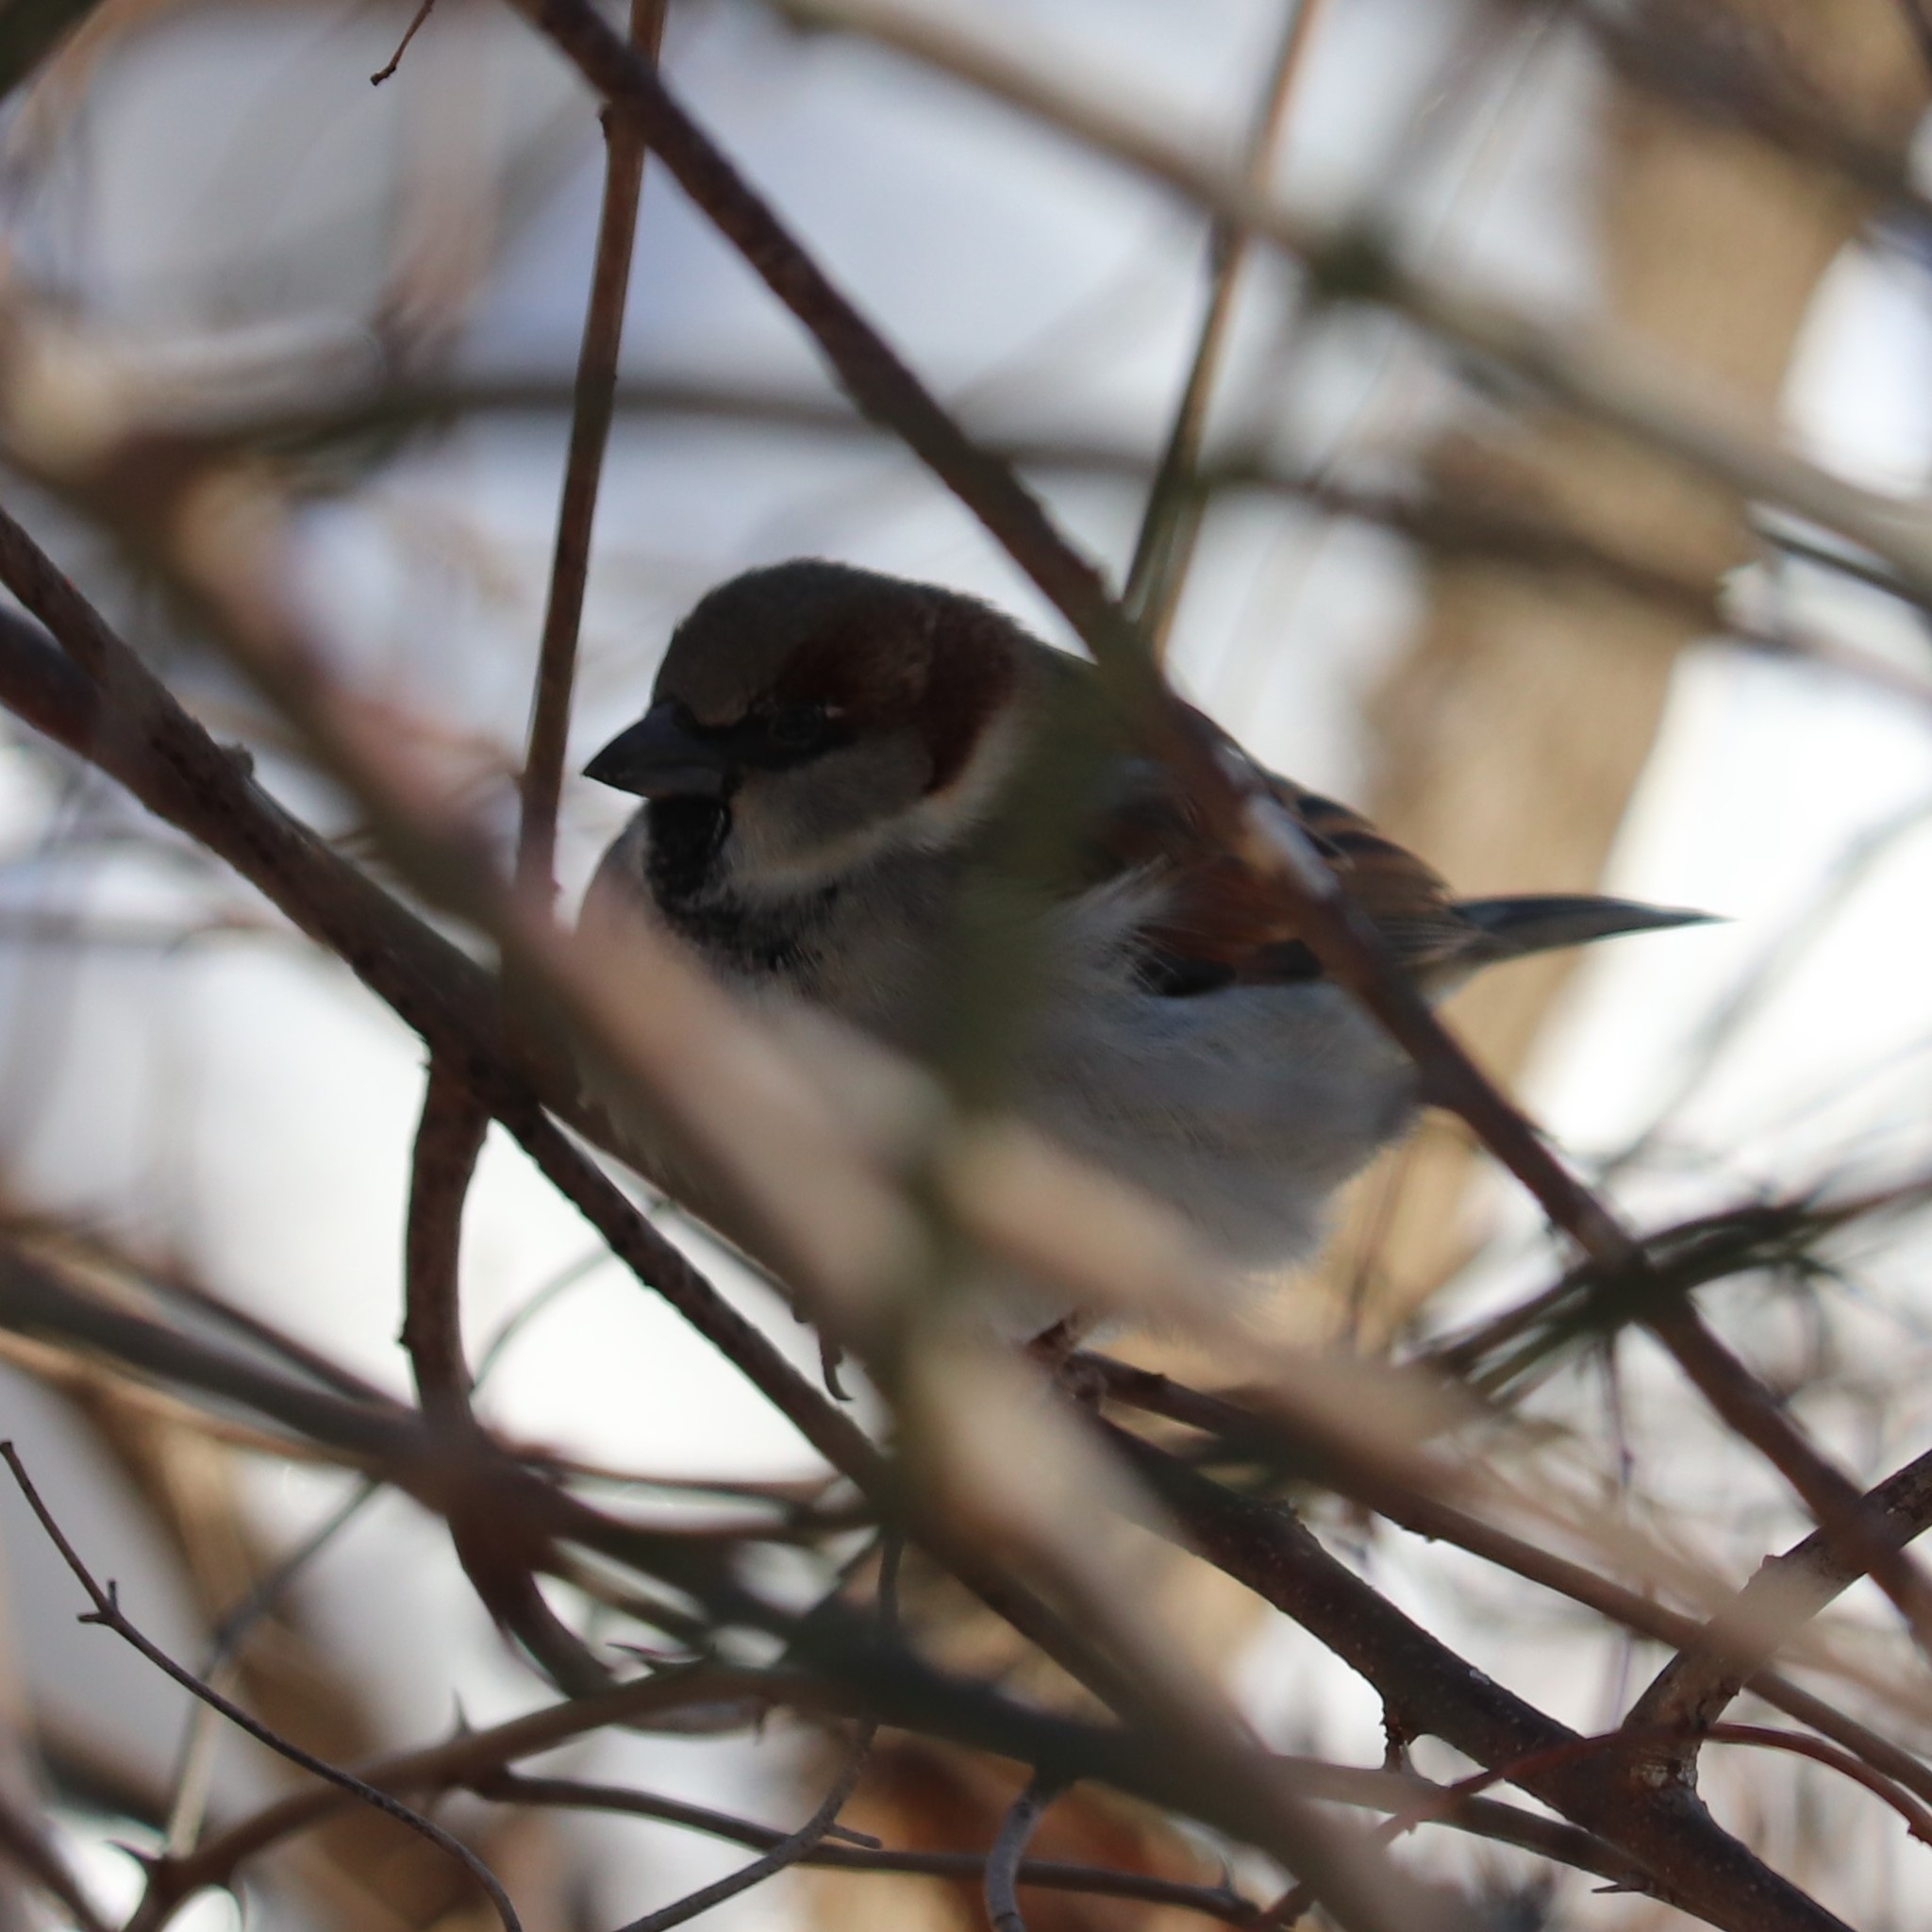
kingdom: Animalia
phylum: Chordata
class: Aves
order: Passeriformes
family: Passeridae
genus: Passer
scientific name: Passer domesticus
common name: House sparrow
